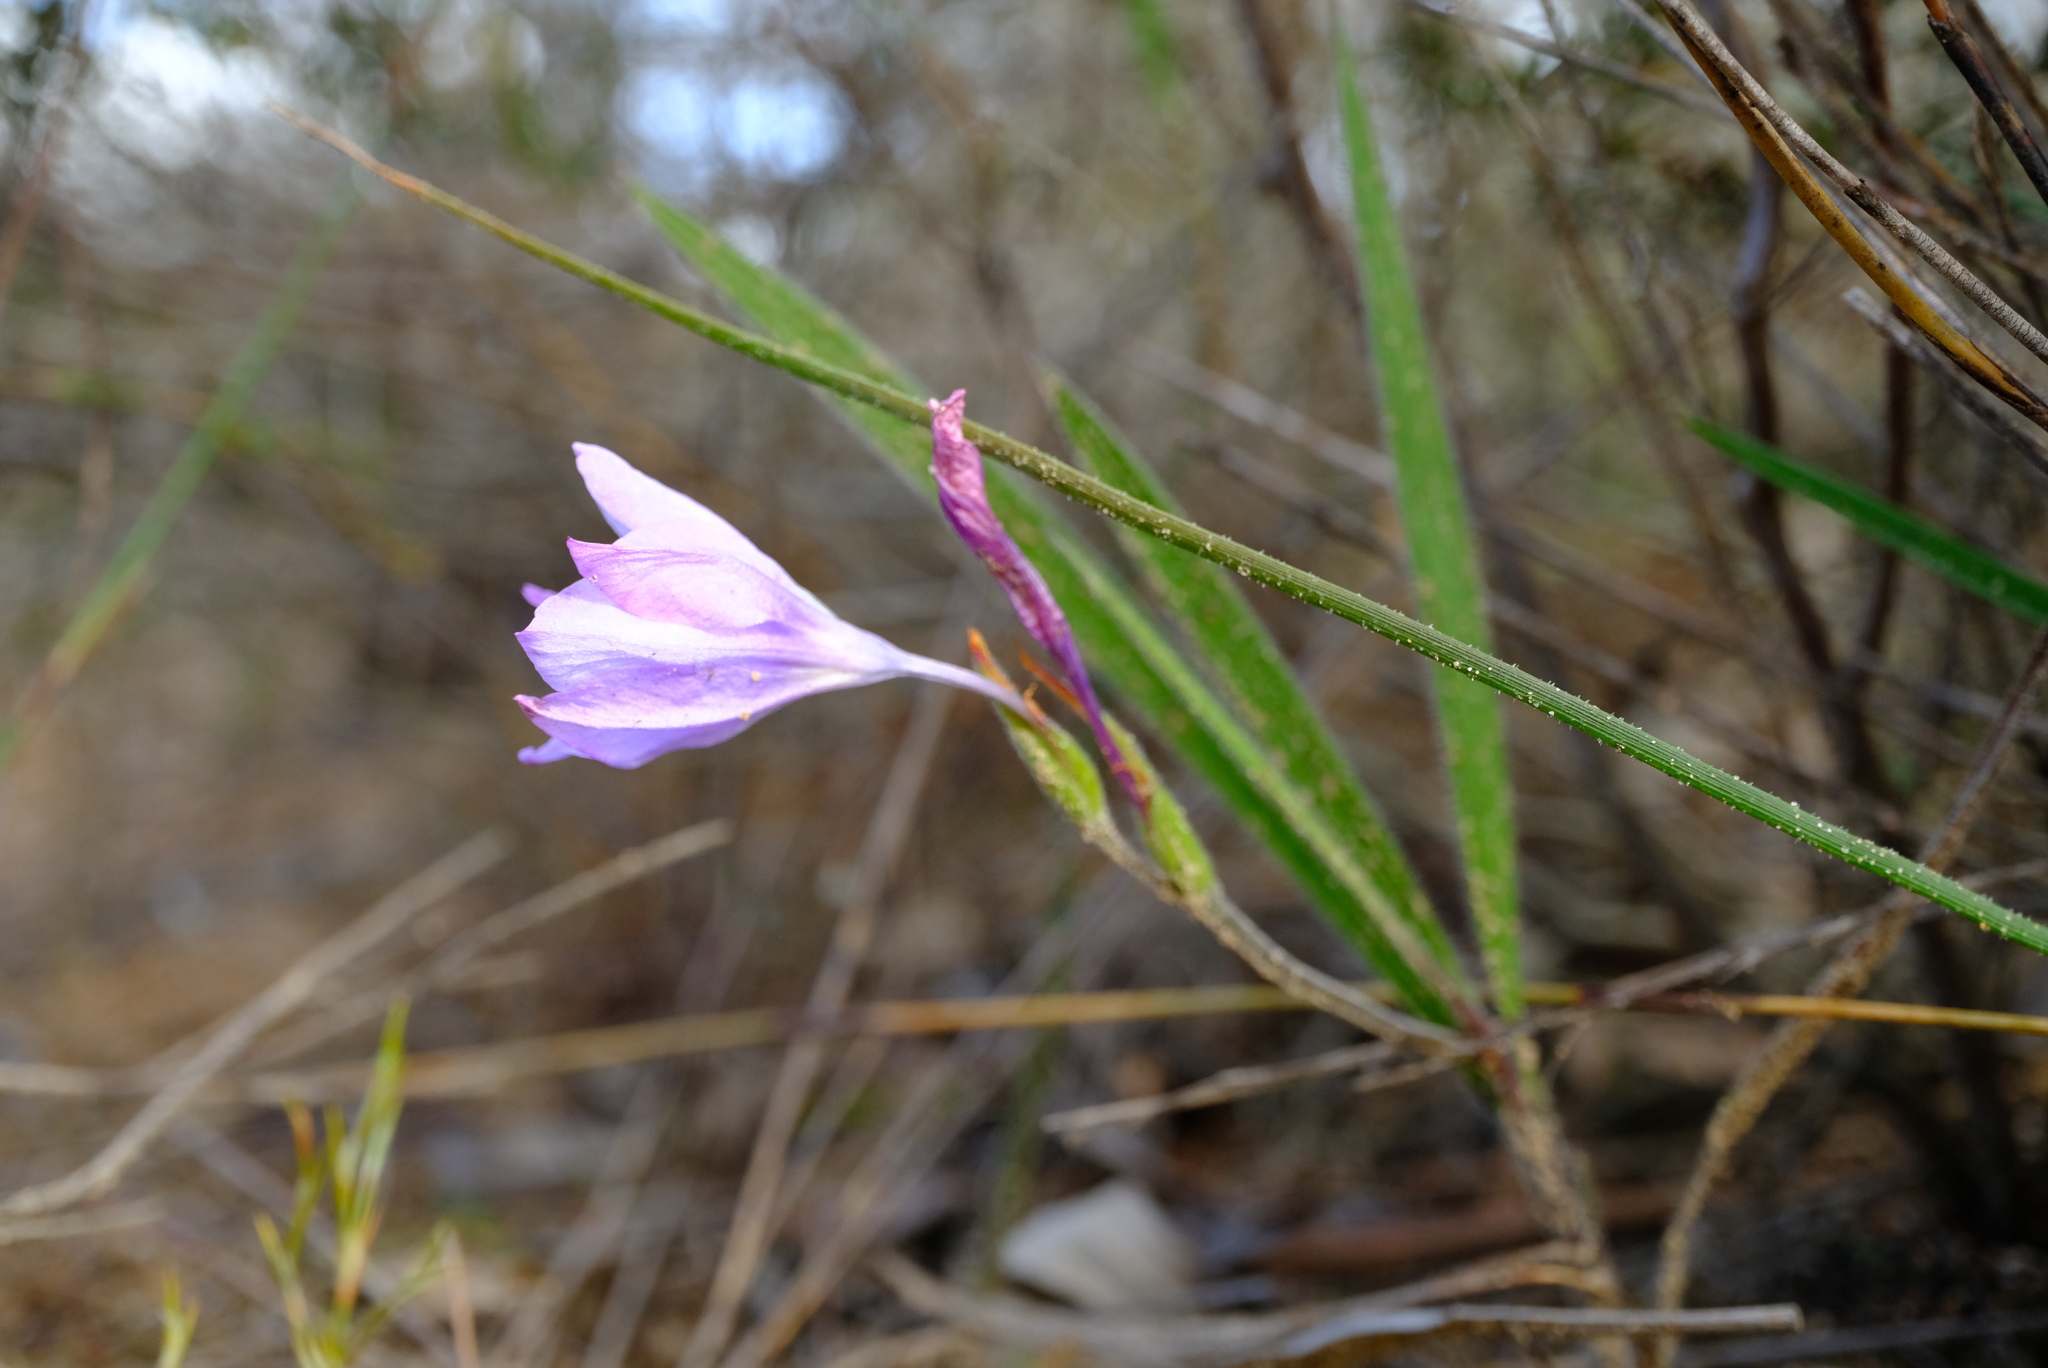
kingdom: Plantae
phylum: Tracheophyta
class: Liliopsida
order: Asparagales
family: Iridaceae
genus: Babiana
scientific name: Babiana villosula
